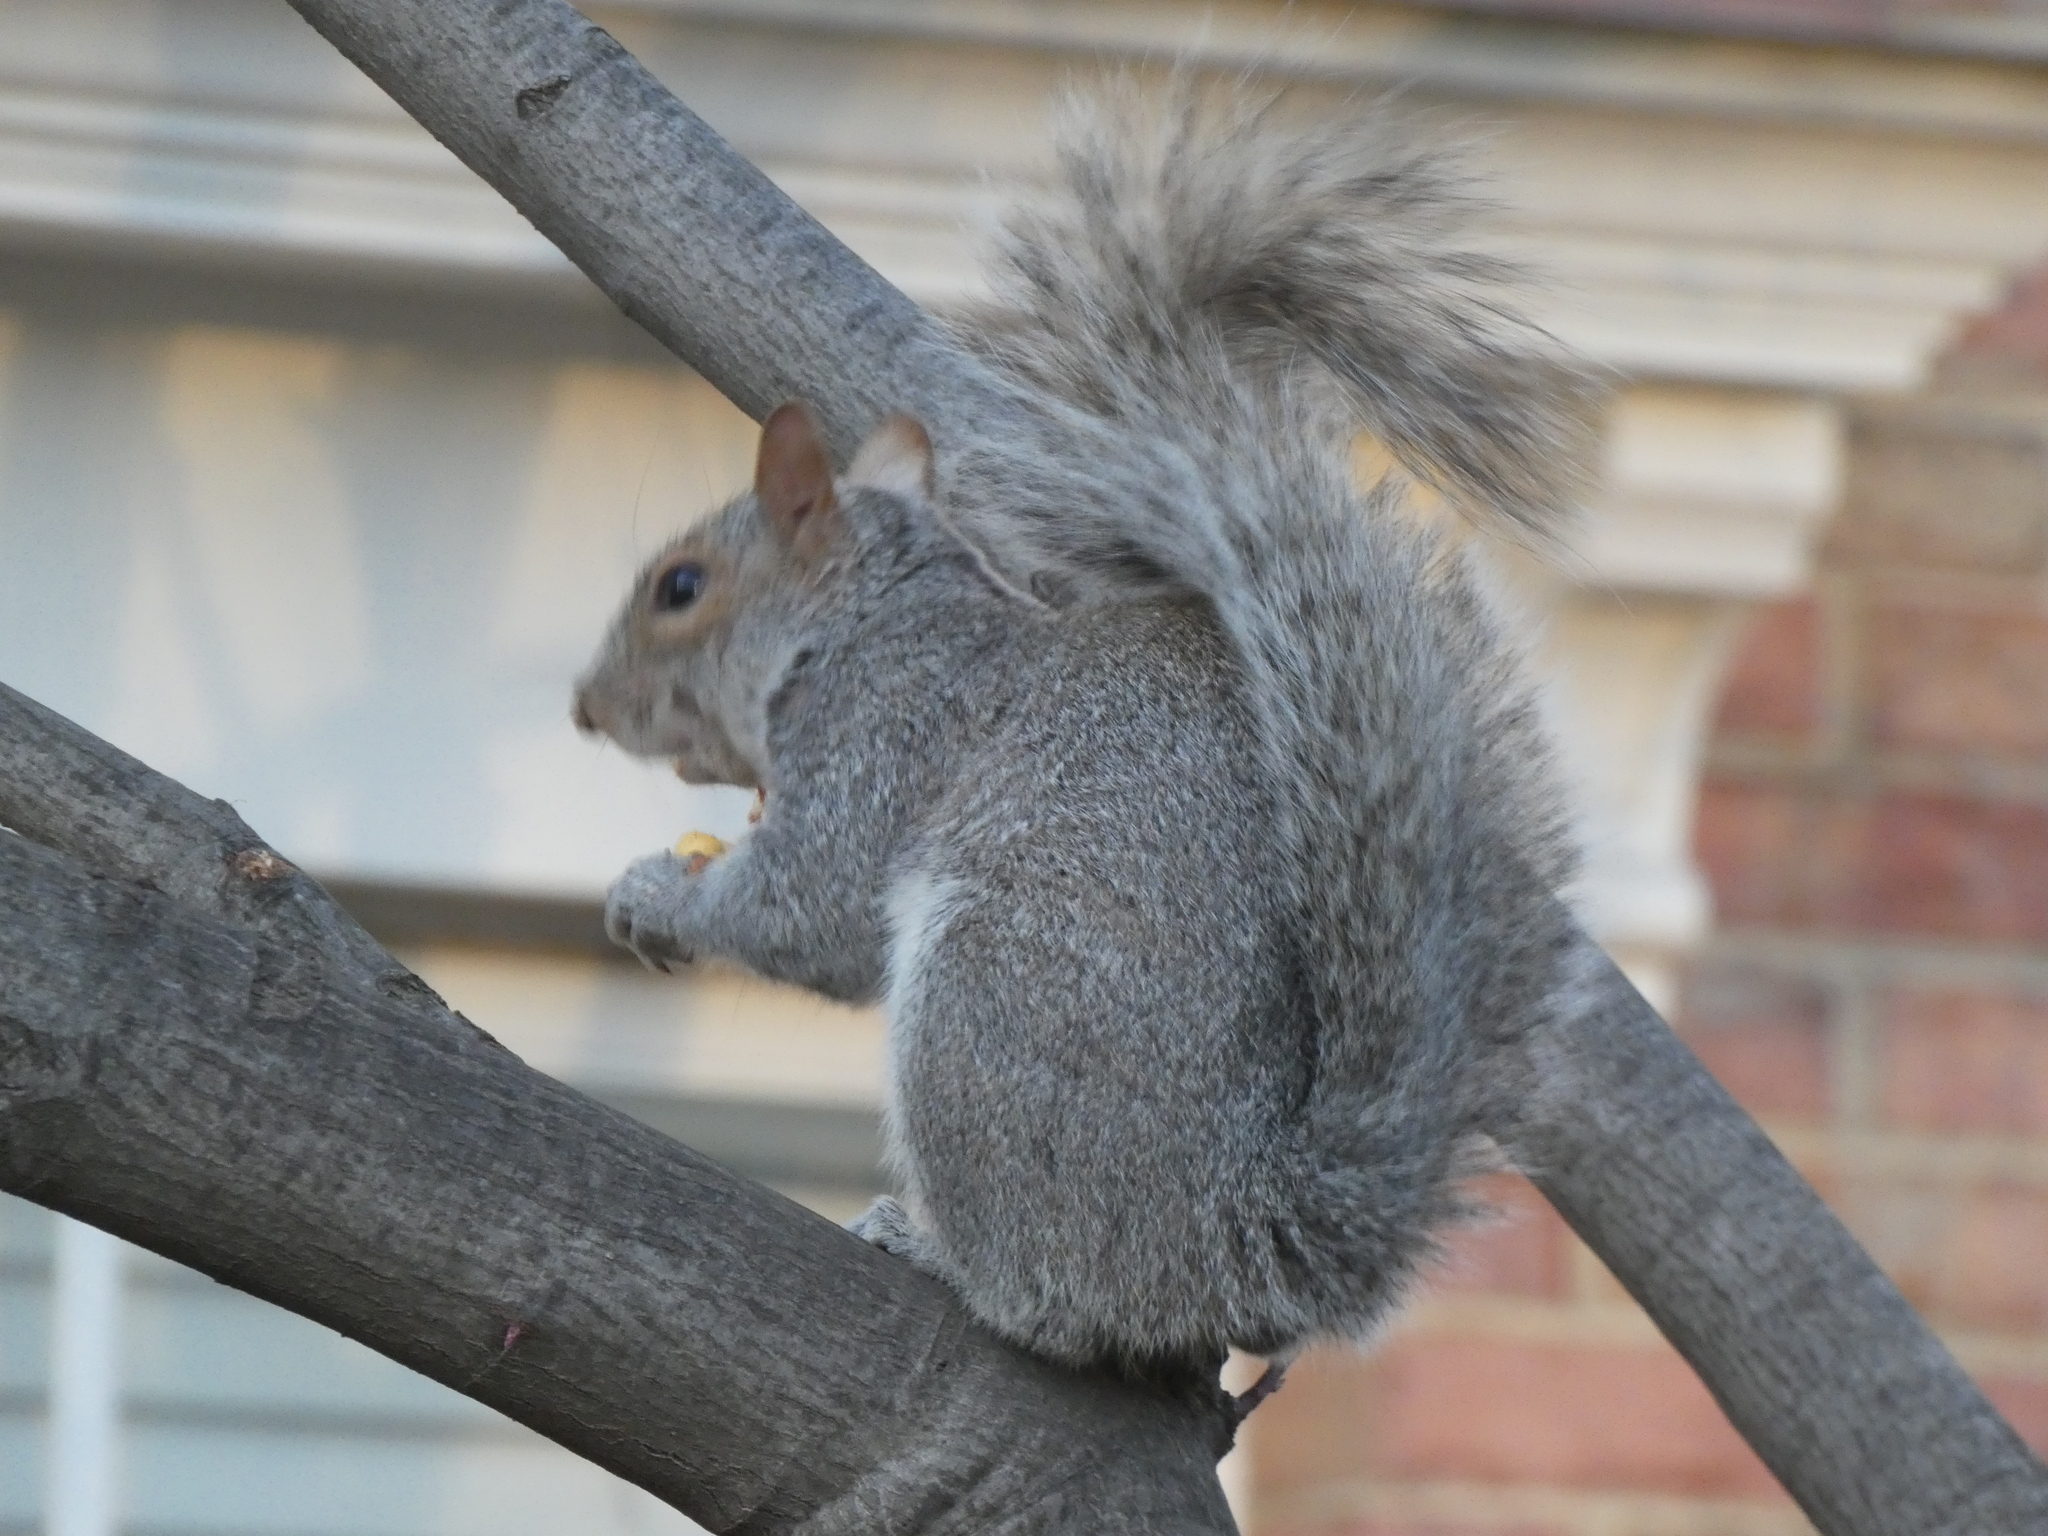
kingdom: Animalia
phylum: Chordata
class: Mammalia
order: Rodentia
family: Sciuridae
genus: Sciurus
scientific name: Sciurus carolinensis
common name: Eastern gray squirrel
